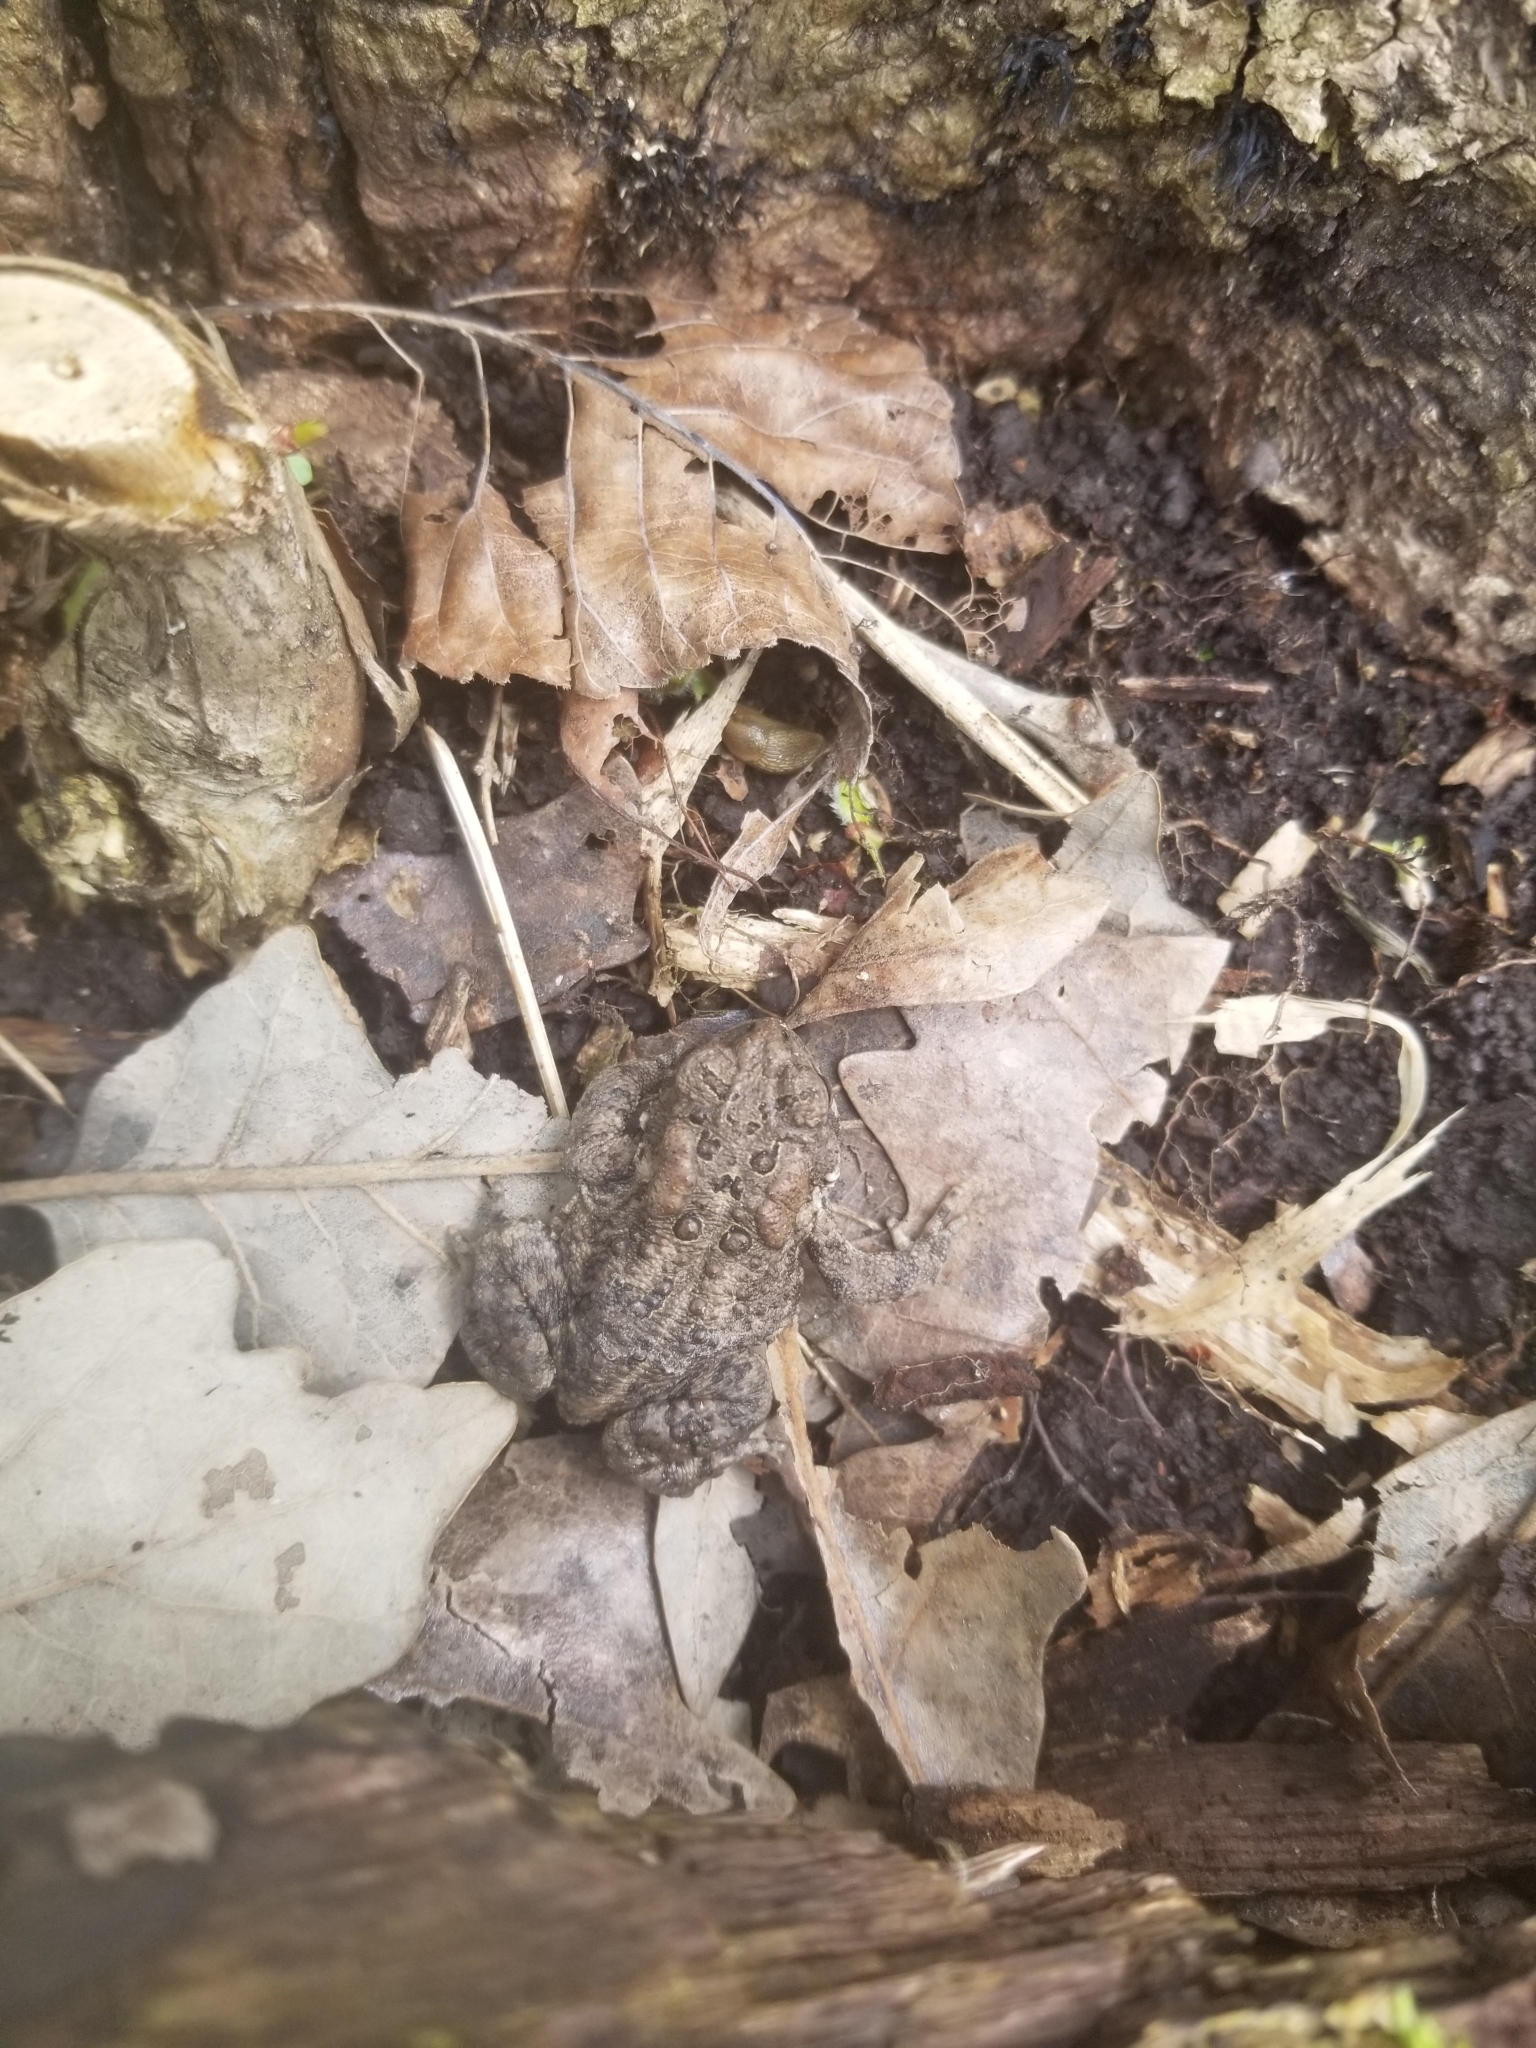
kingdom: Animalia
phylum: Chordata
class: Amphibia
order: Anura
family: Bufonidae
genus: Anaxyrus
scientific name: Anaxyrus americanus
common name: American toad
